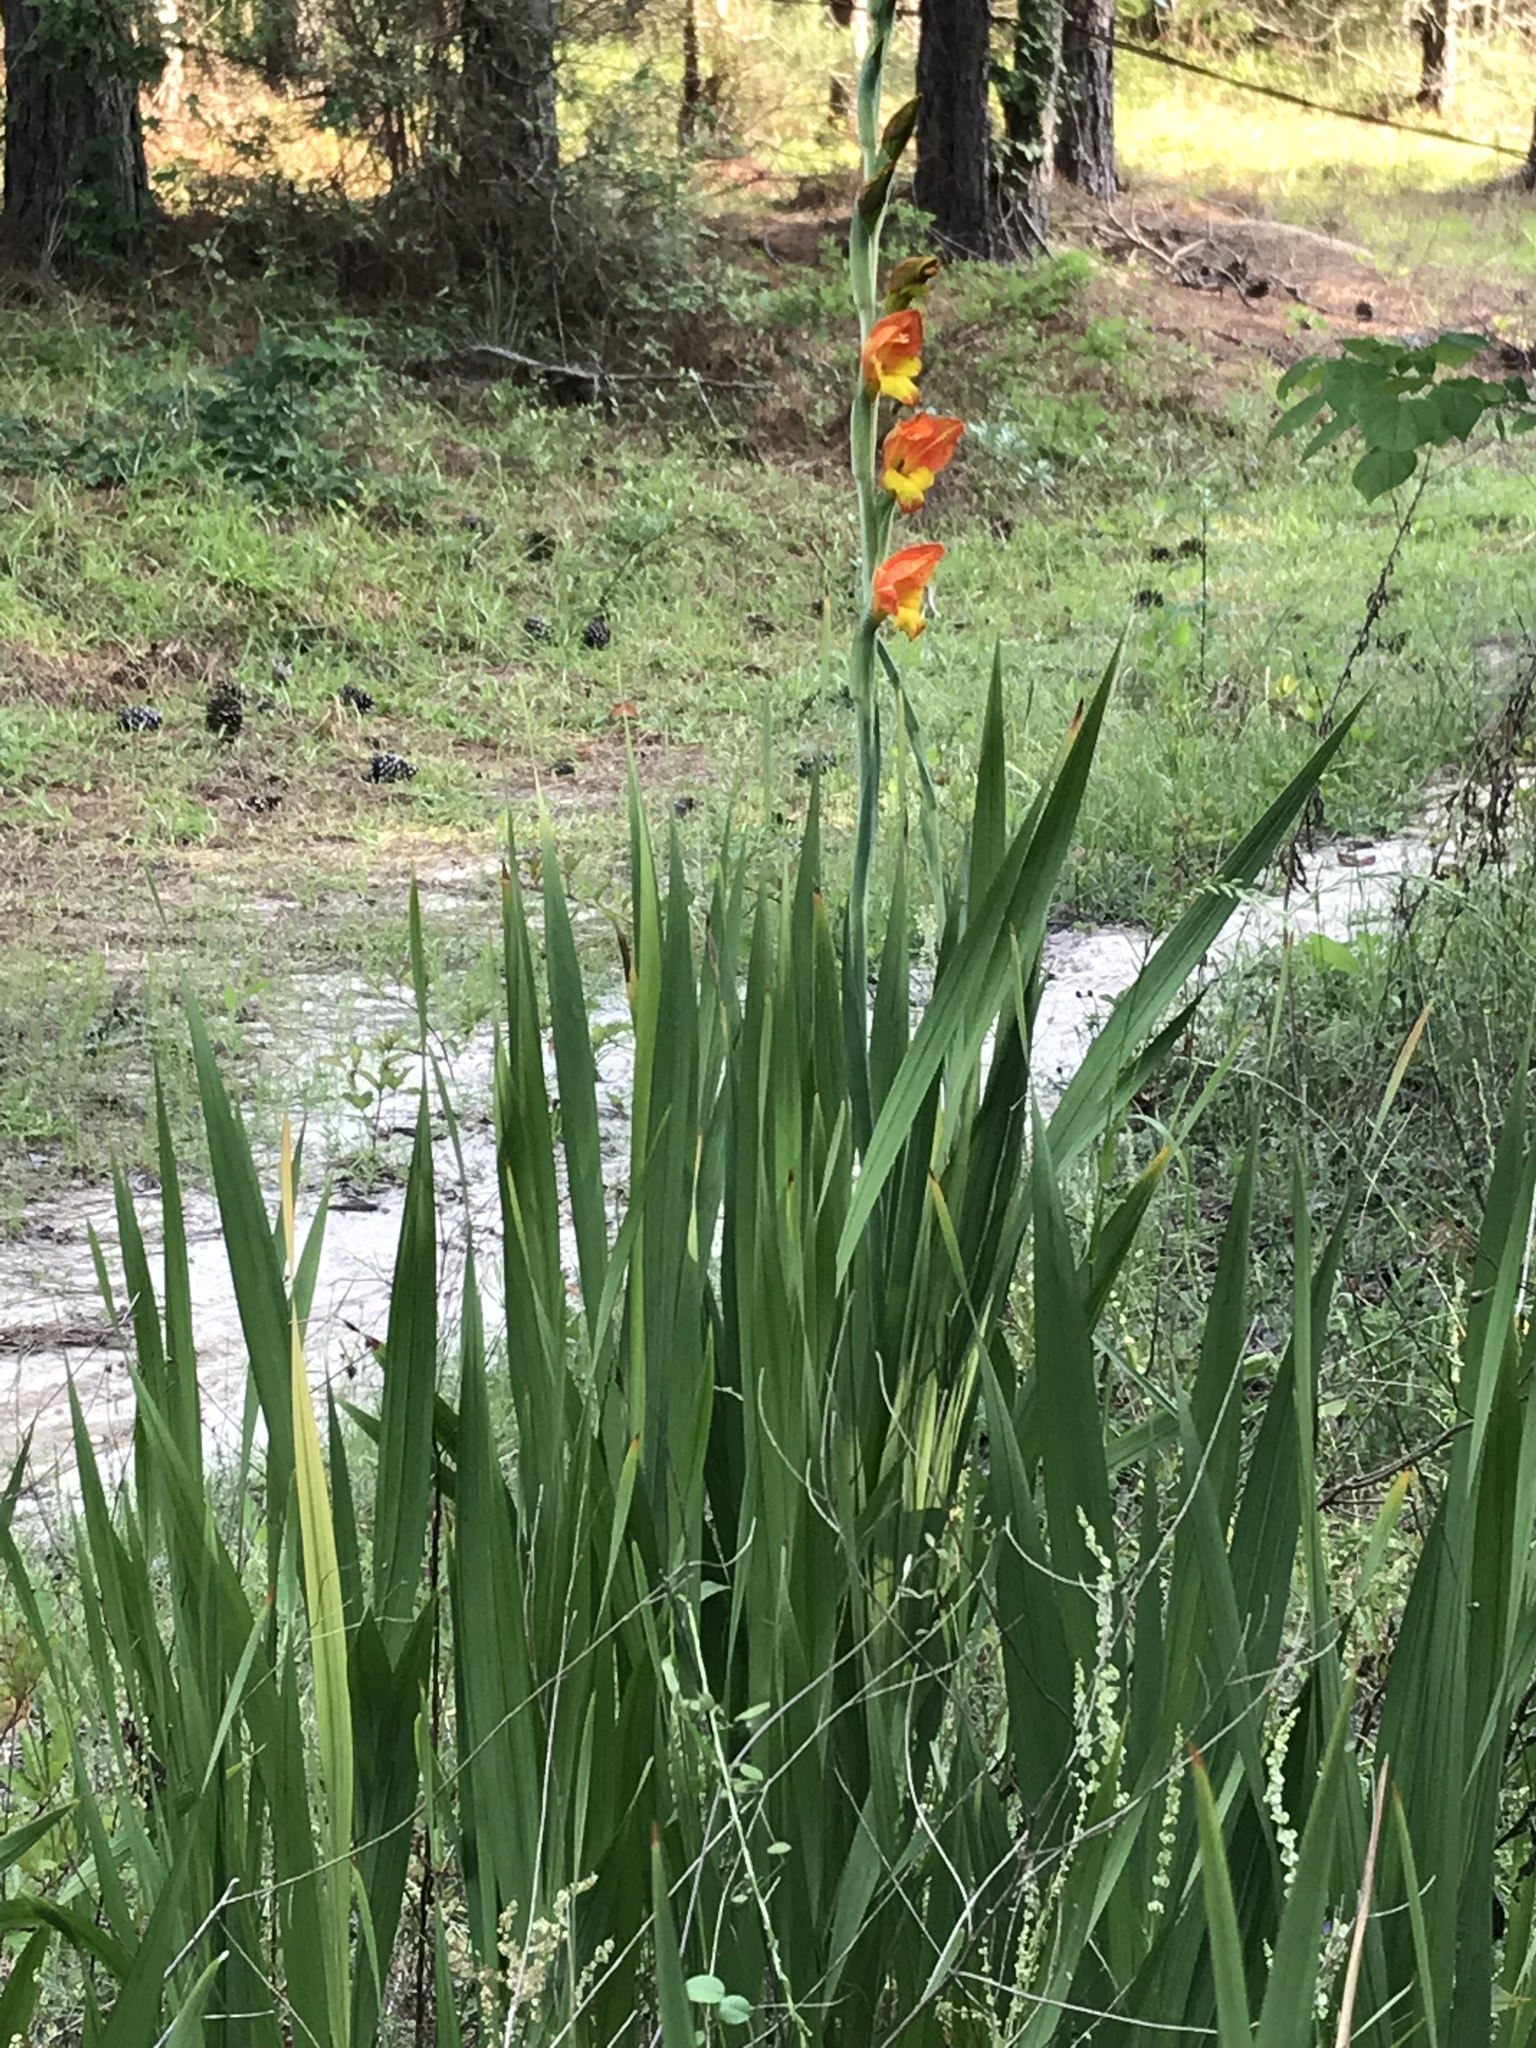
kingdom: Plantae
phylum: Tracheophyta
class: Liliopsida
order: Asparagales
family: Iridaceae
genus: Gladiolus
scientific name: Gladiolus dalenii
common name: Cornflag
